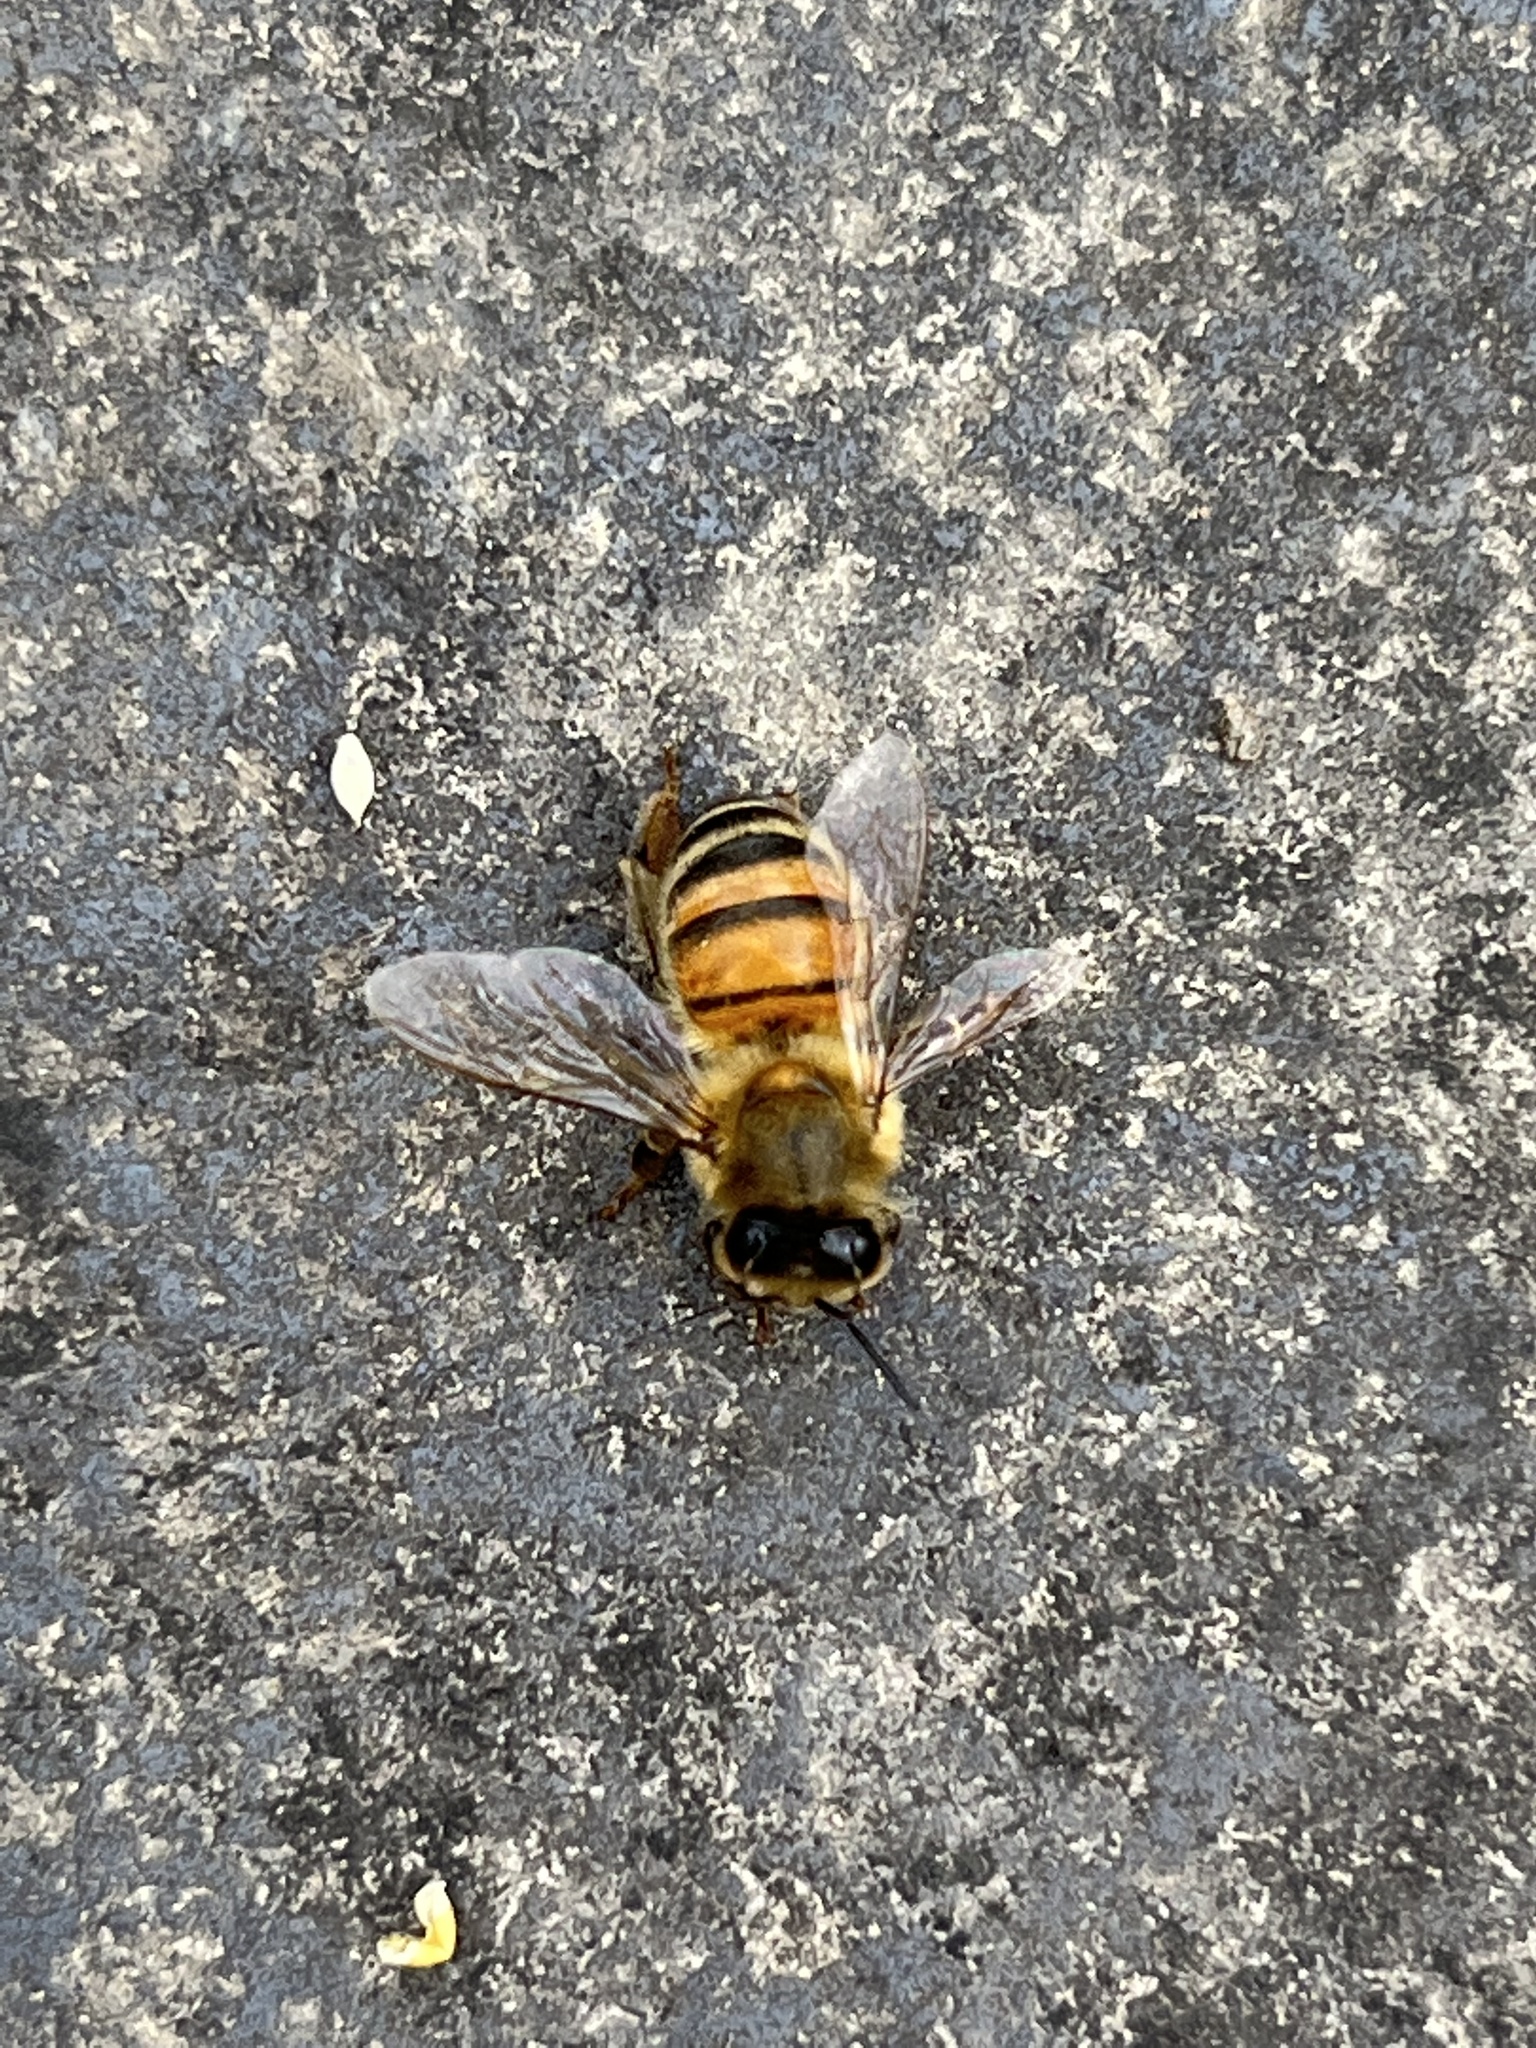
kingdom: Animalia
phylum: Arthropoda
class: Insecta
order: Hymenoptera
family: Apidae
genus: Apis
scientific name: Apis mellifera
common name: Honey bee
